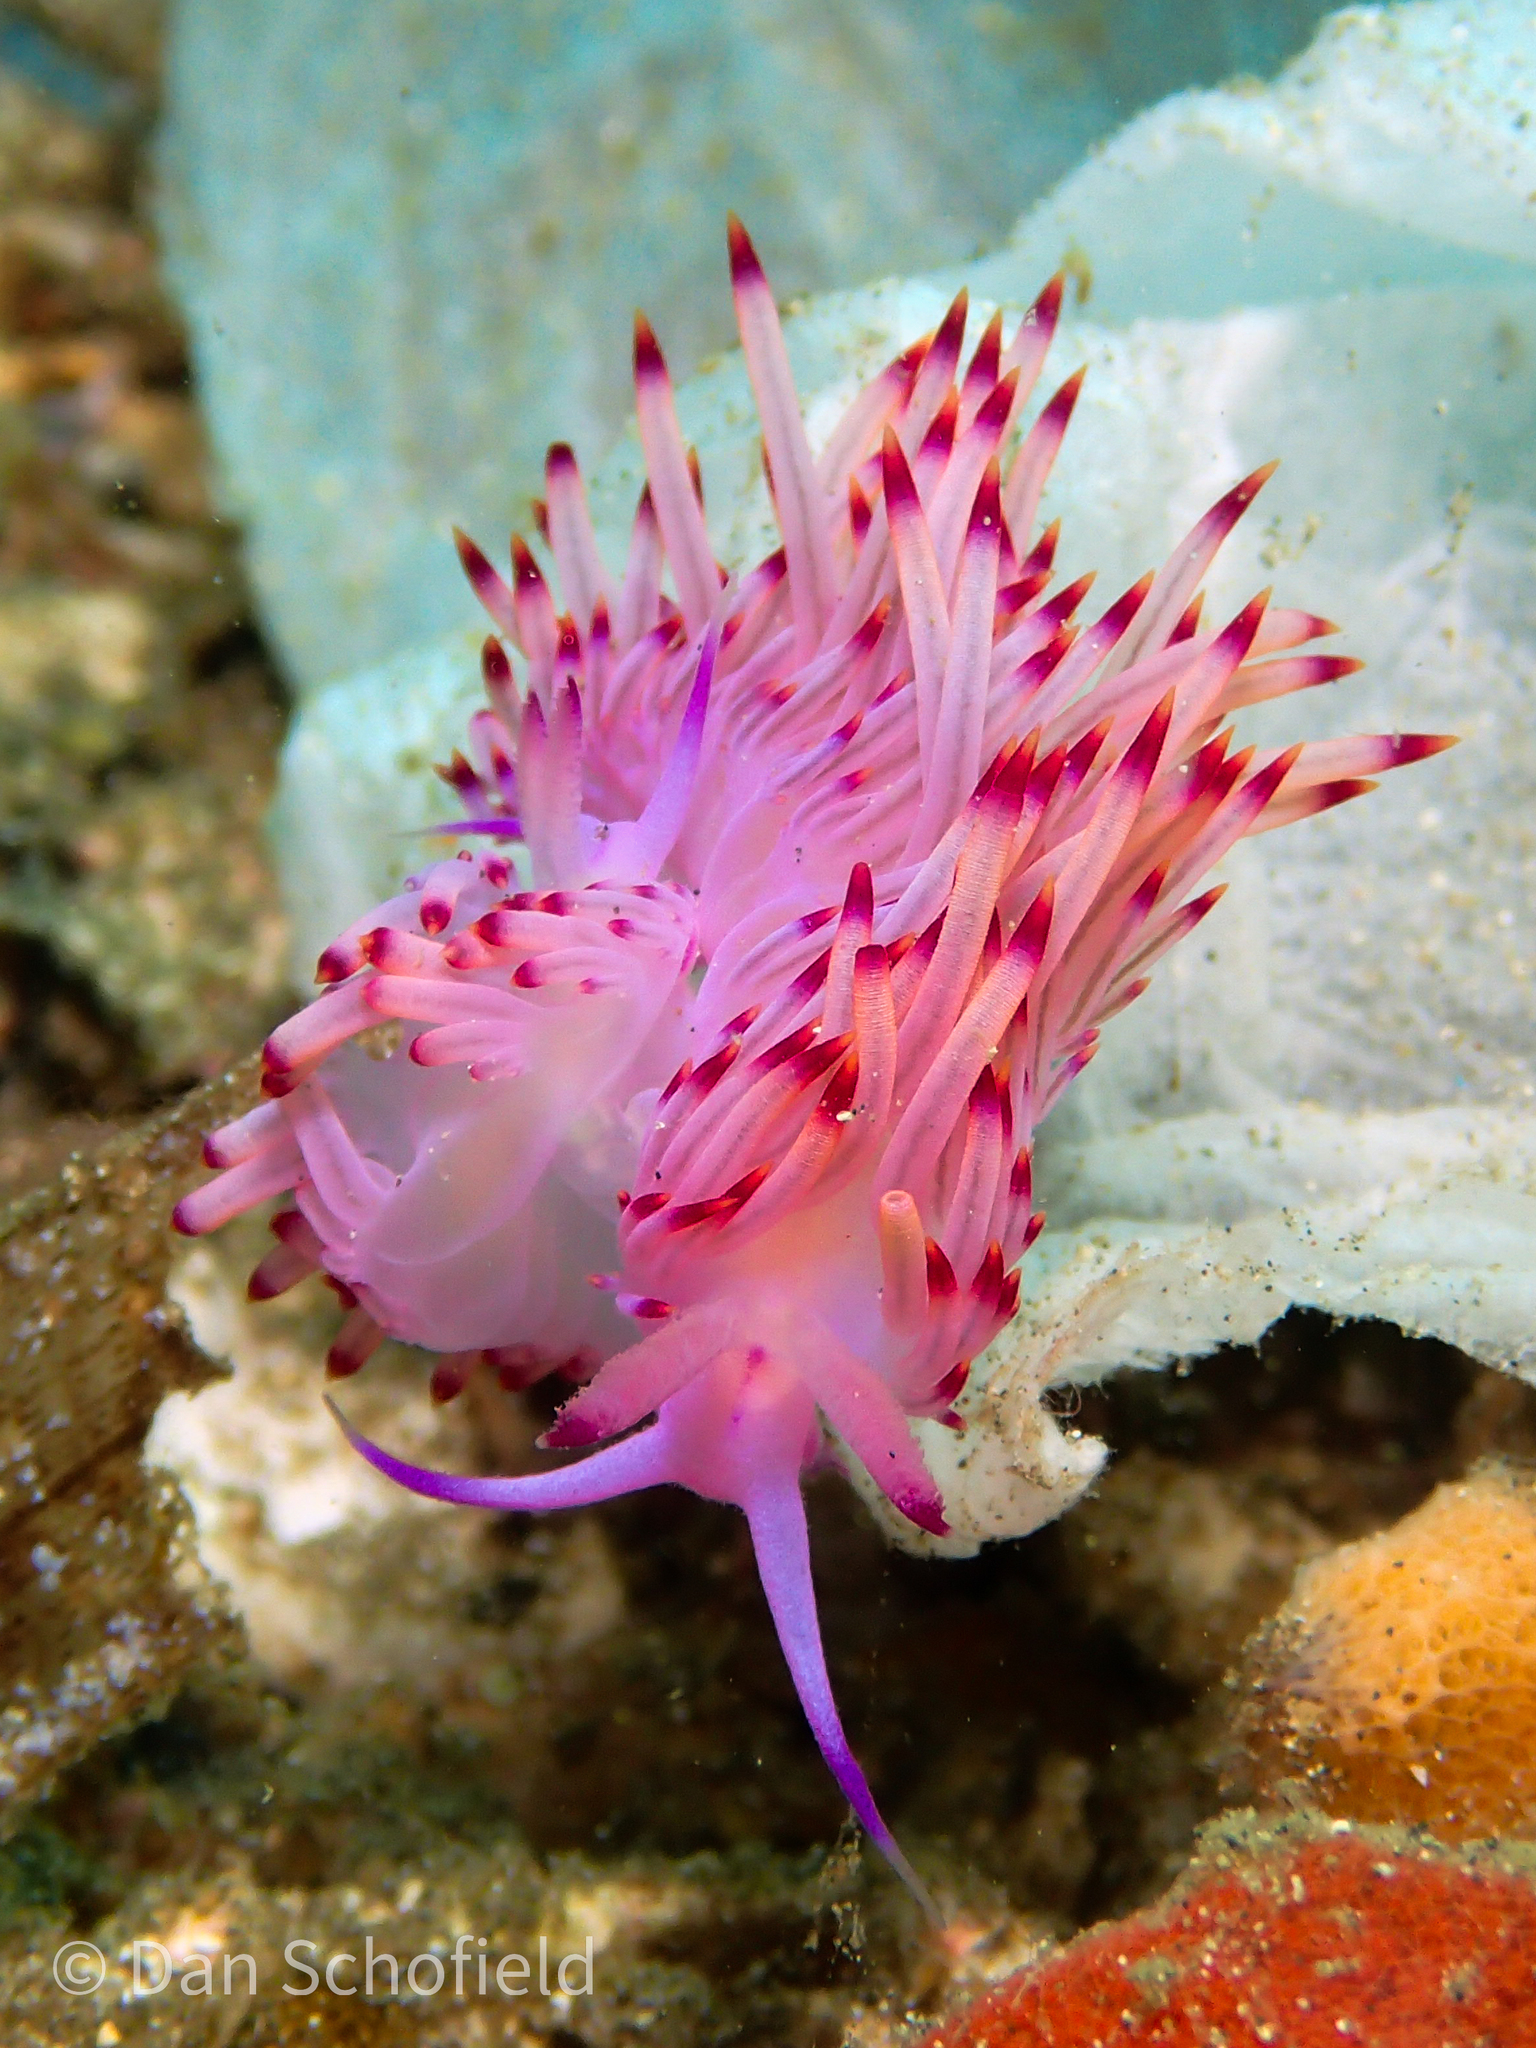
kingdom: Animalia
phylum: Mollusca
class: Gastropoda
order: Nudibranchia
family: Flabellinidae
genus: Coryphellina
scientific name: Coryphellina aurora
